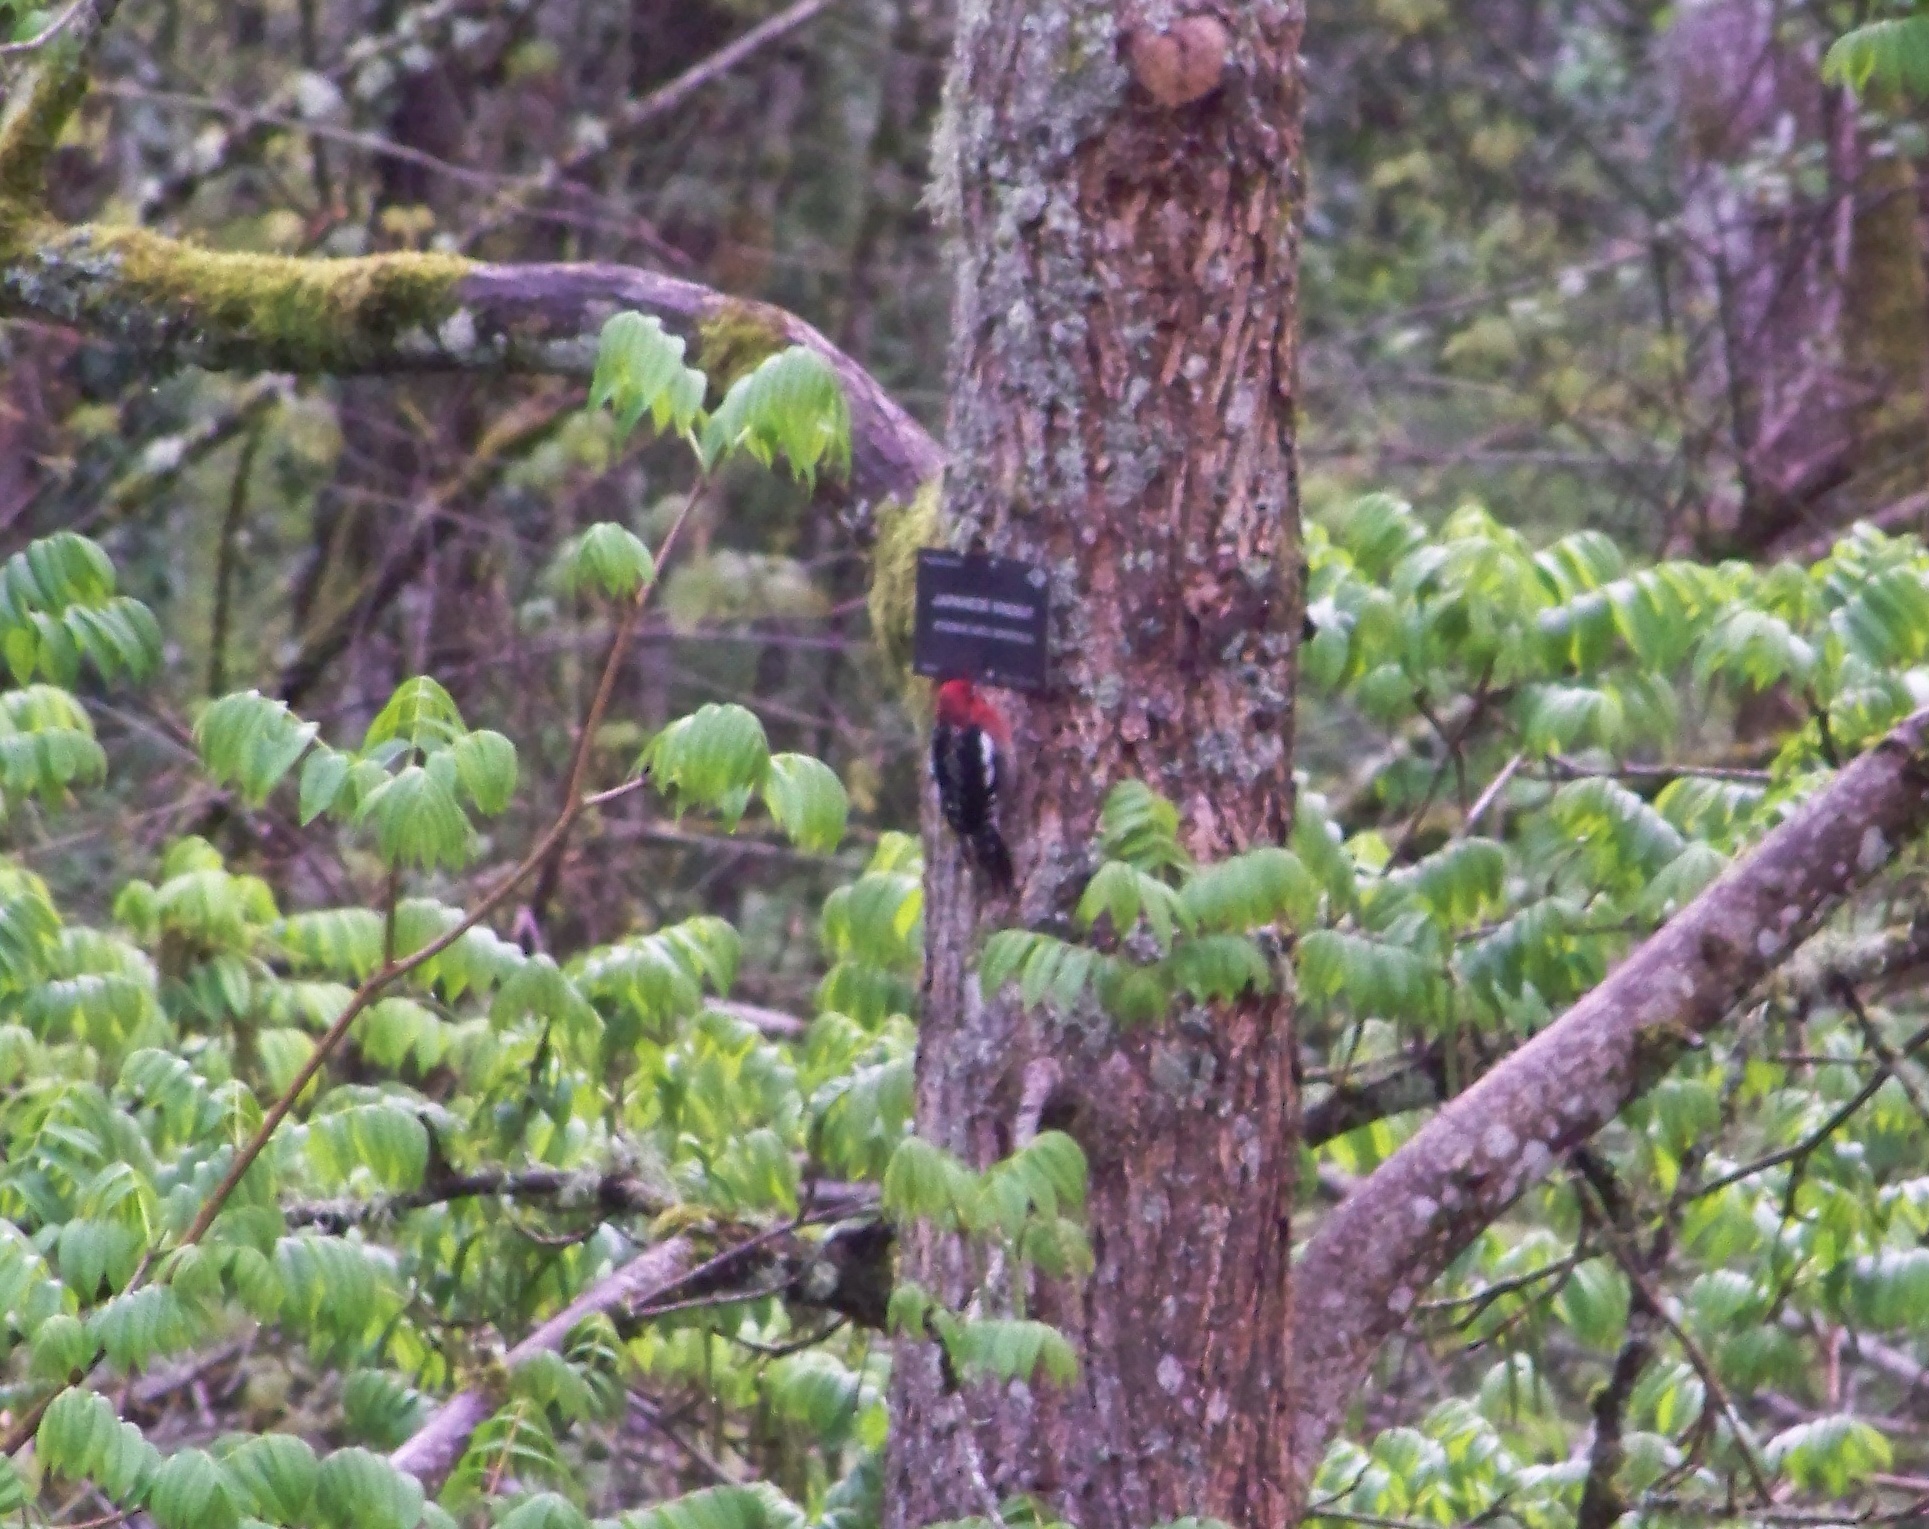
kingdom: Animalia
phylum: Chordata
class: Aves
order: Piciformes
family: Picidae
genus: Sphyrapicus
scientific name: Sphyrapicus ruber
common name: Red-breasted sapsucker
